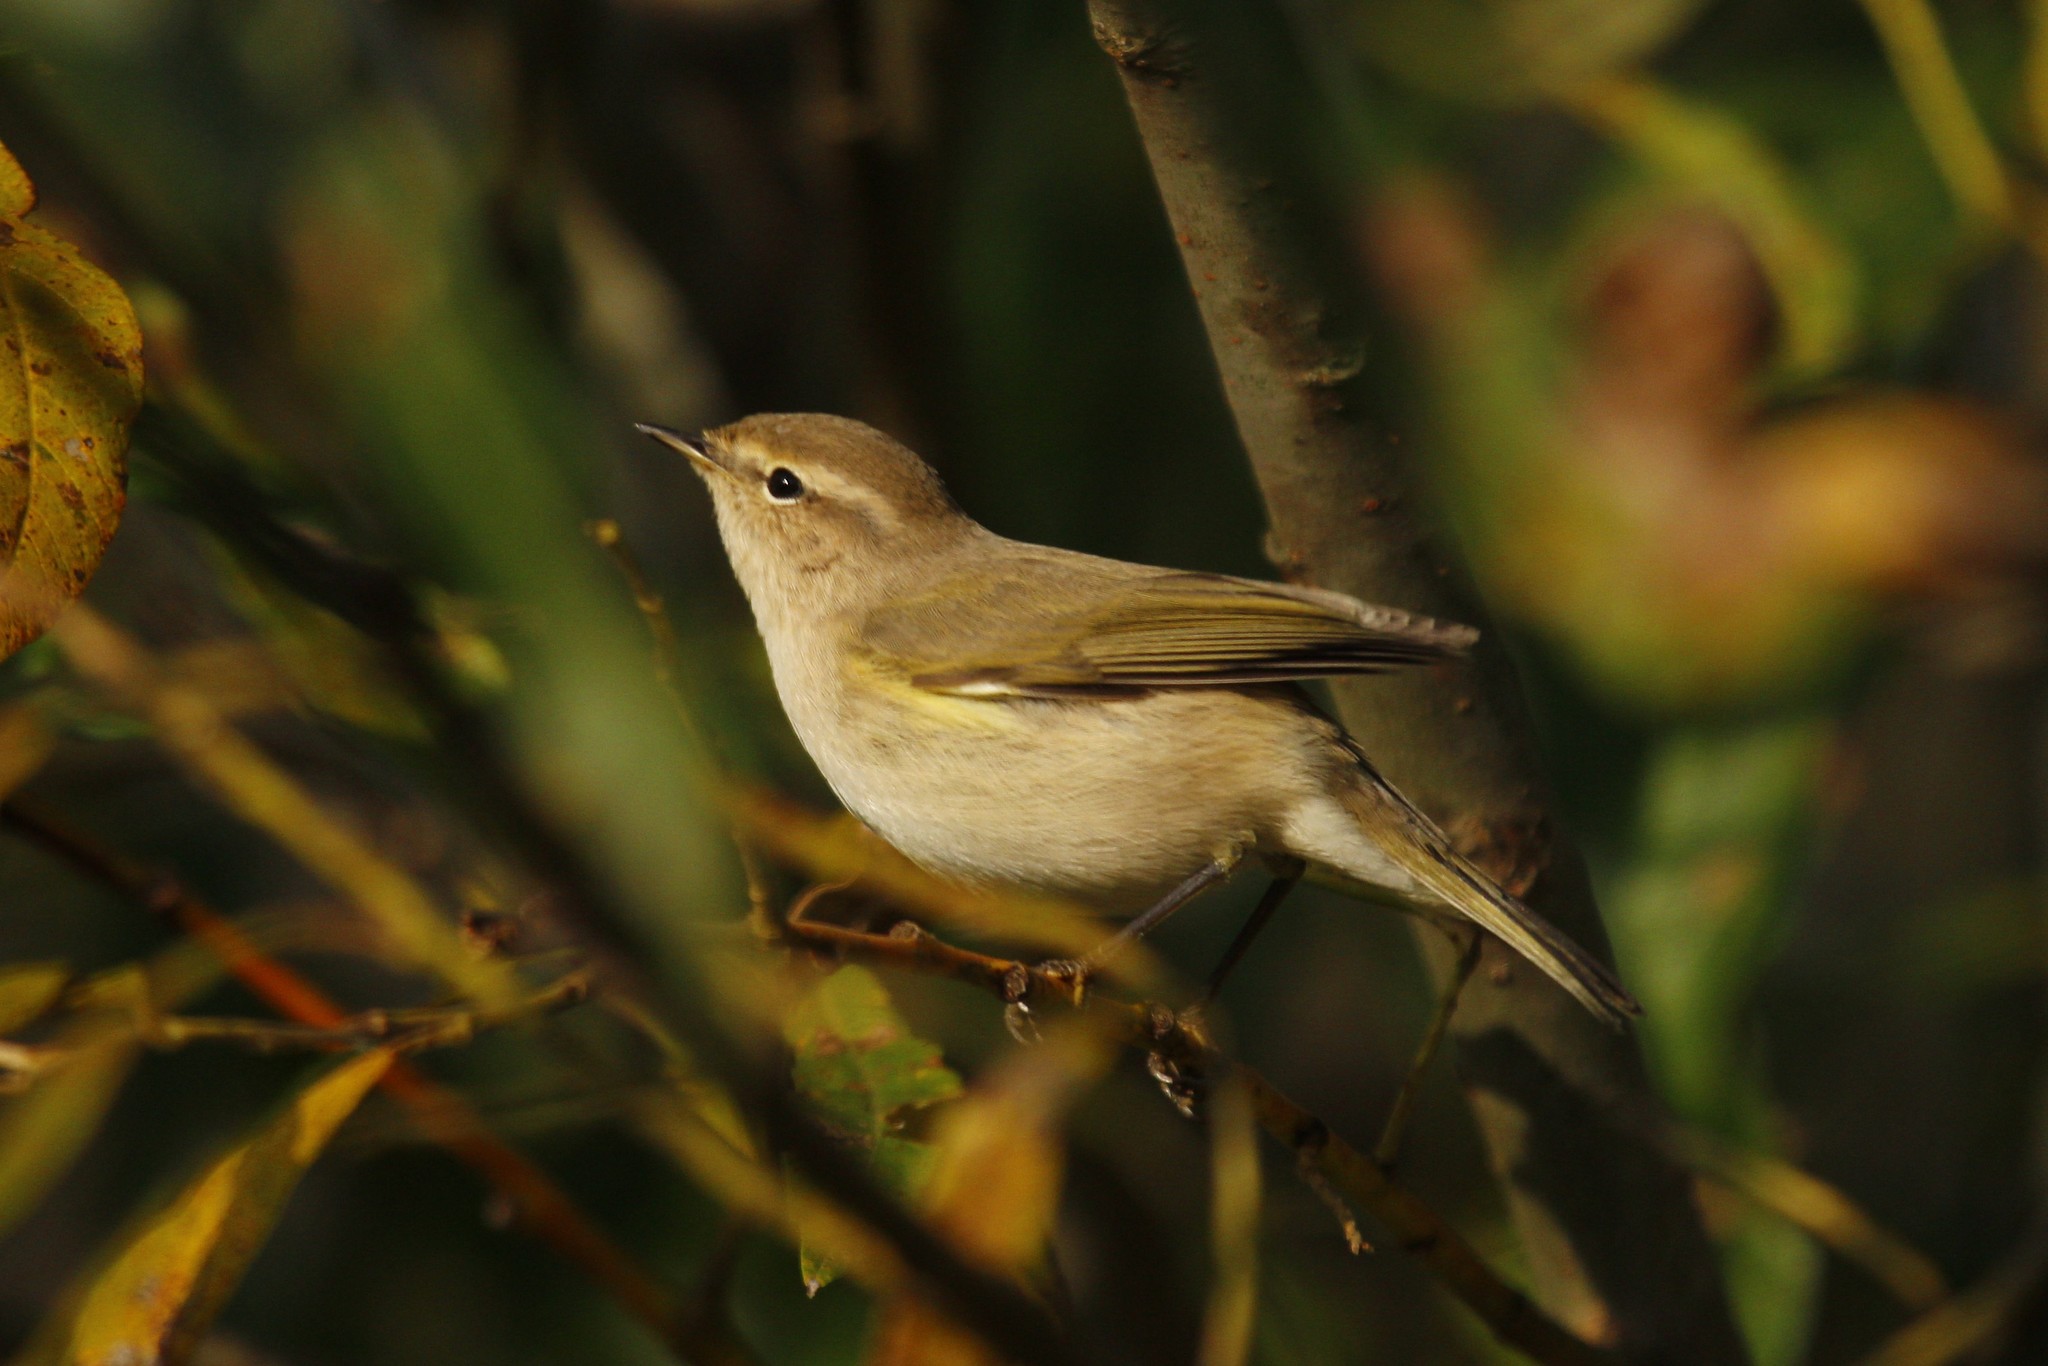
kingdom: Animalia
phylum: Chordata
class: Aves
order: Passeriformes
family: Phylloscopidae
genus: Phylloscopus
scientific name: Phylloscopus collybita
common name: Common chiffchaff
